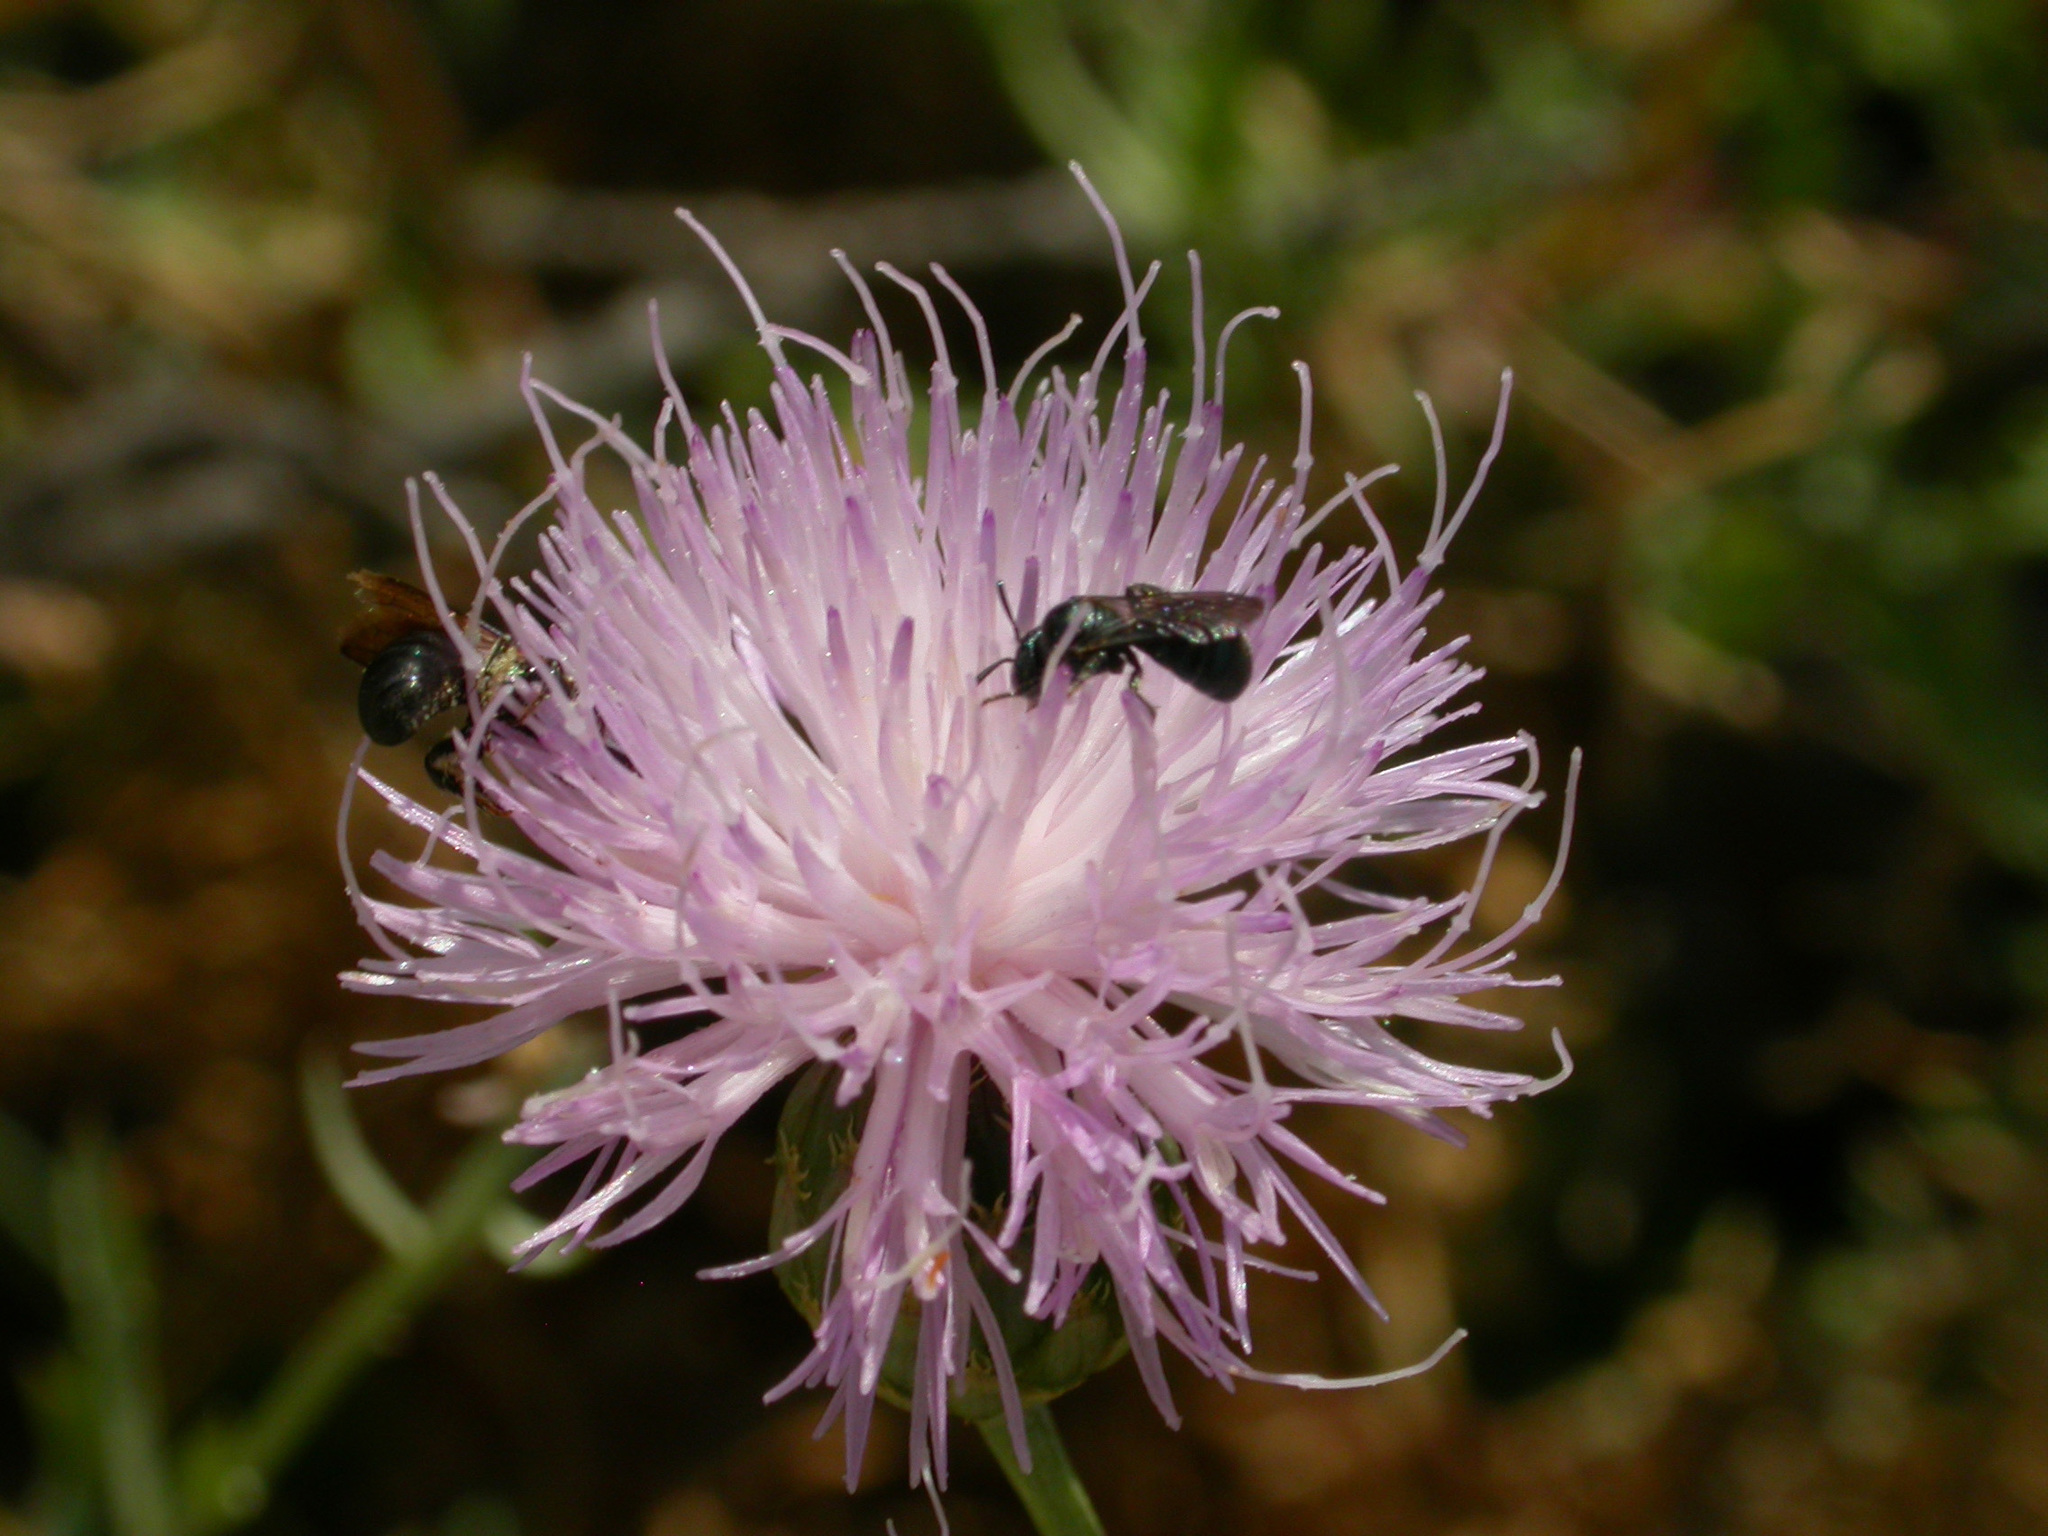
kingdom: Plantae
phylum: Tracheophyta
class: Magnoliopsida
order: Asterales
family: Asteraceae
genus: Cheirolophus
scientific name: Cheirolophus intybaceus
